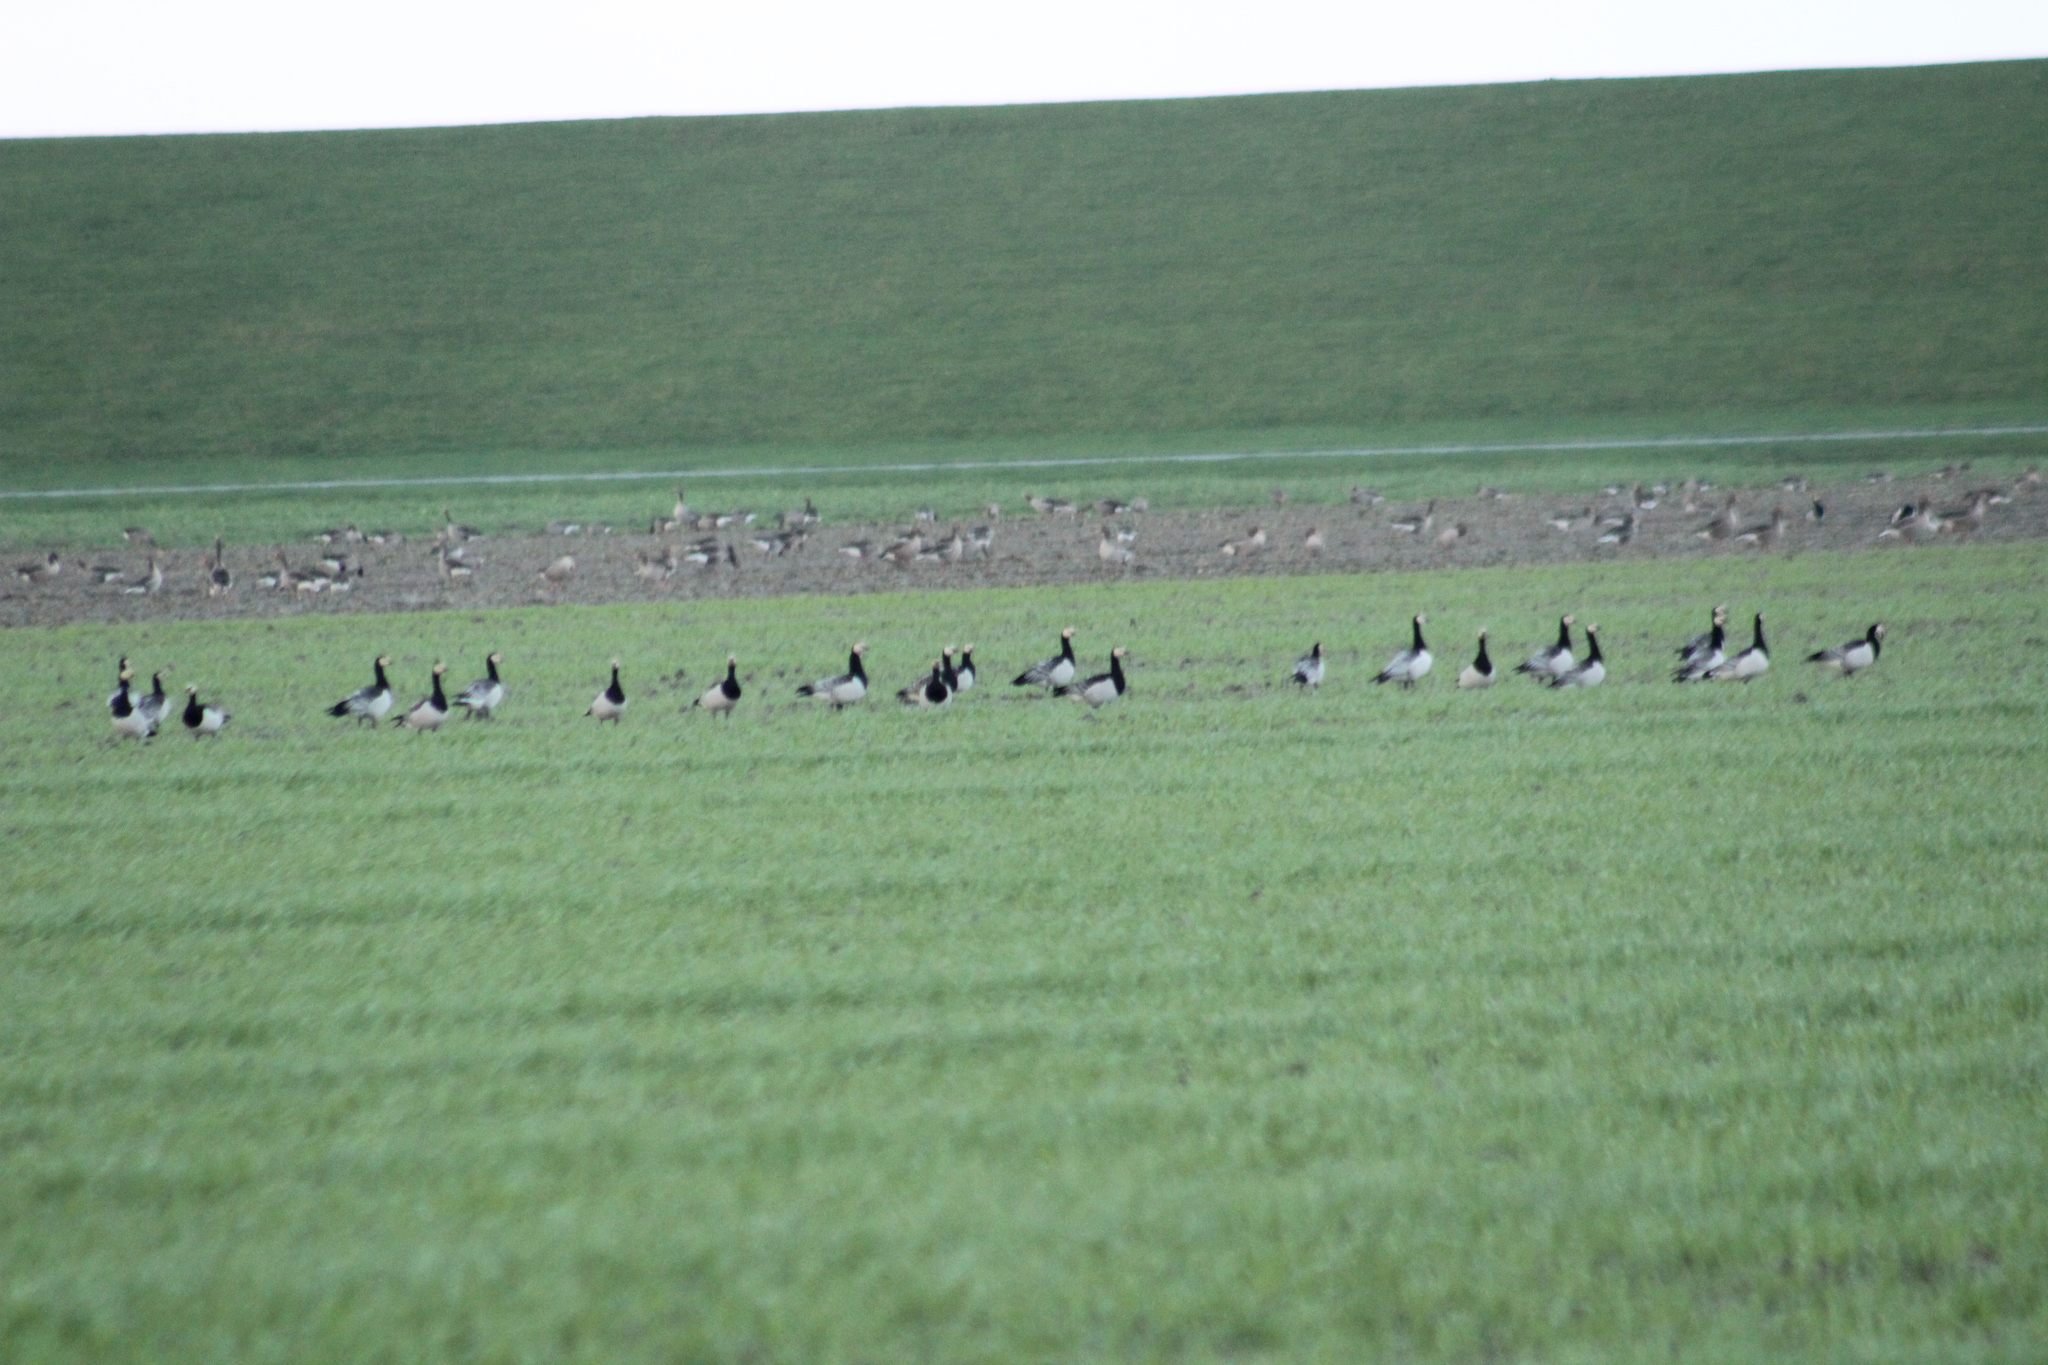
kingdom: Animalia
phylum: Chordata
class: Aves
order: Anseriformes
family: Anatidae
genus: Branta
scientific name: Branta leucopsis
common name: Barnacle goose
